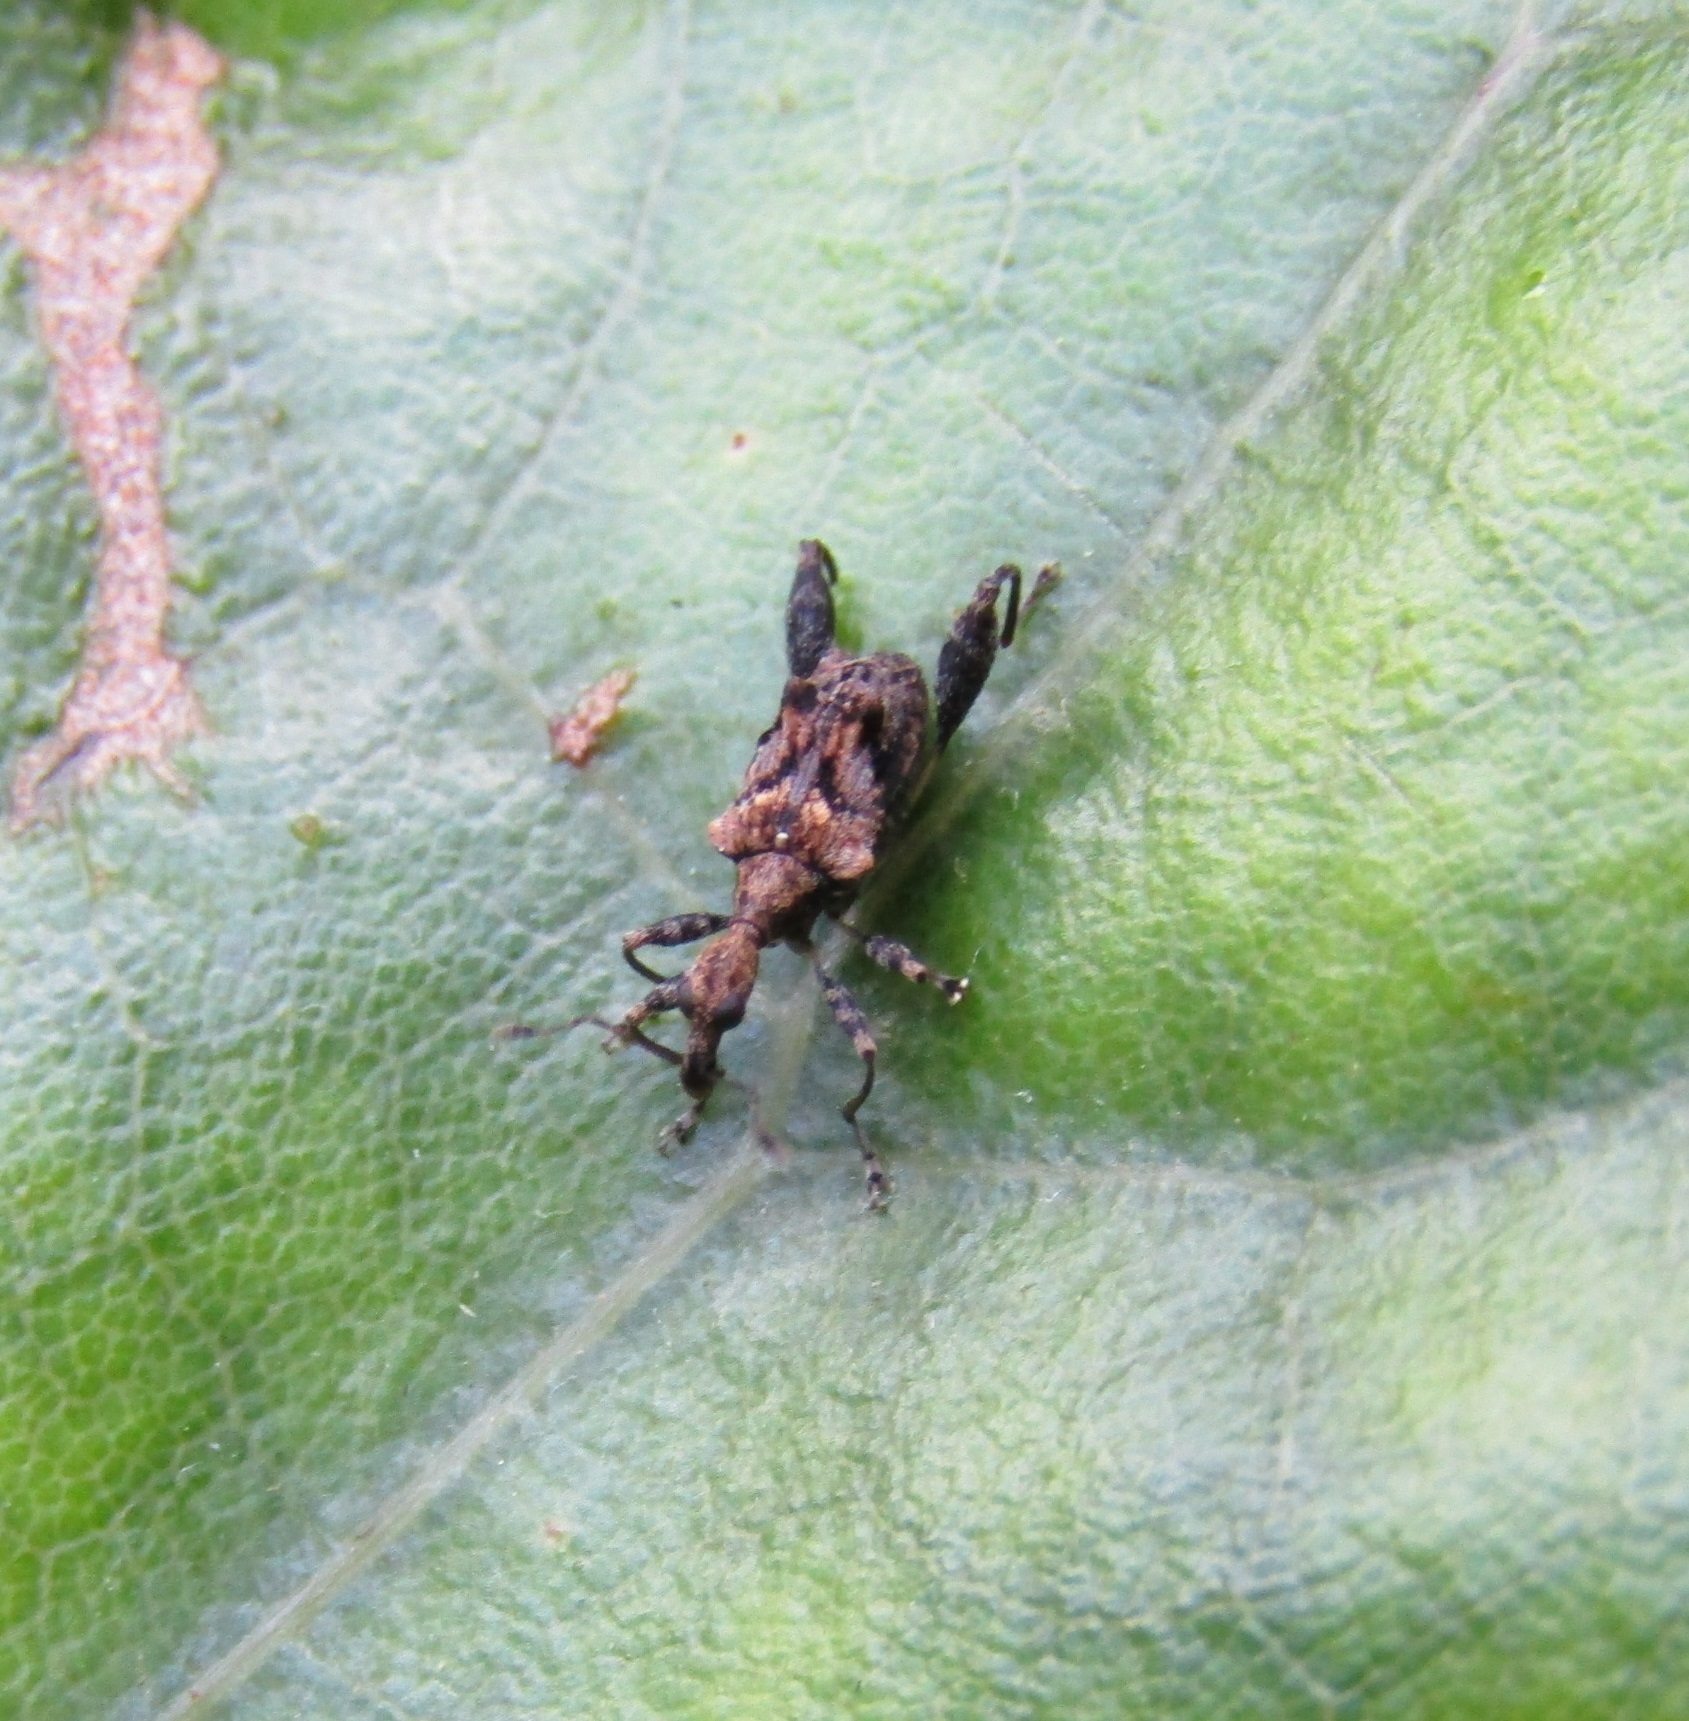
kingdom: Animalia
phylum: Arthropoda
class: Insecta
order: Coleoptera
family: Curculionidae
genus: Stephanorhynchus
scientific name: Stephanorhynchus lawsoni
